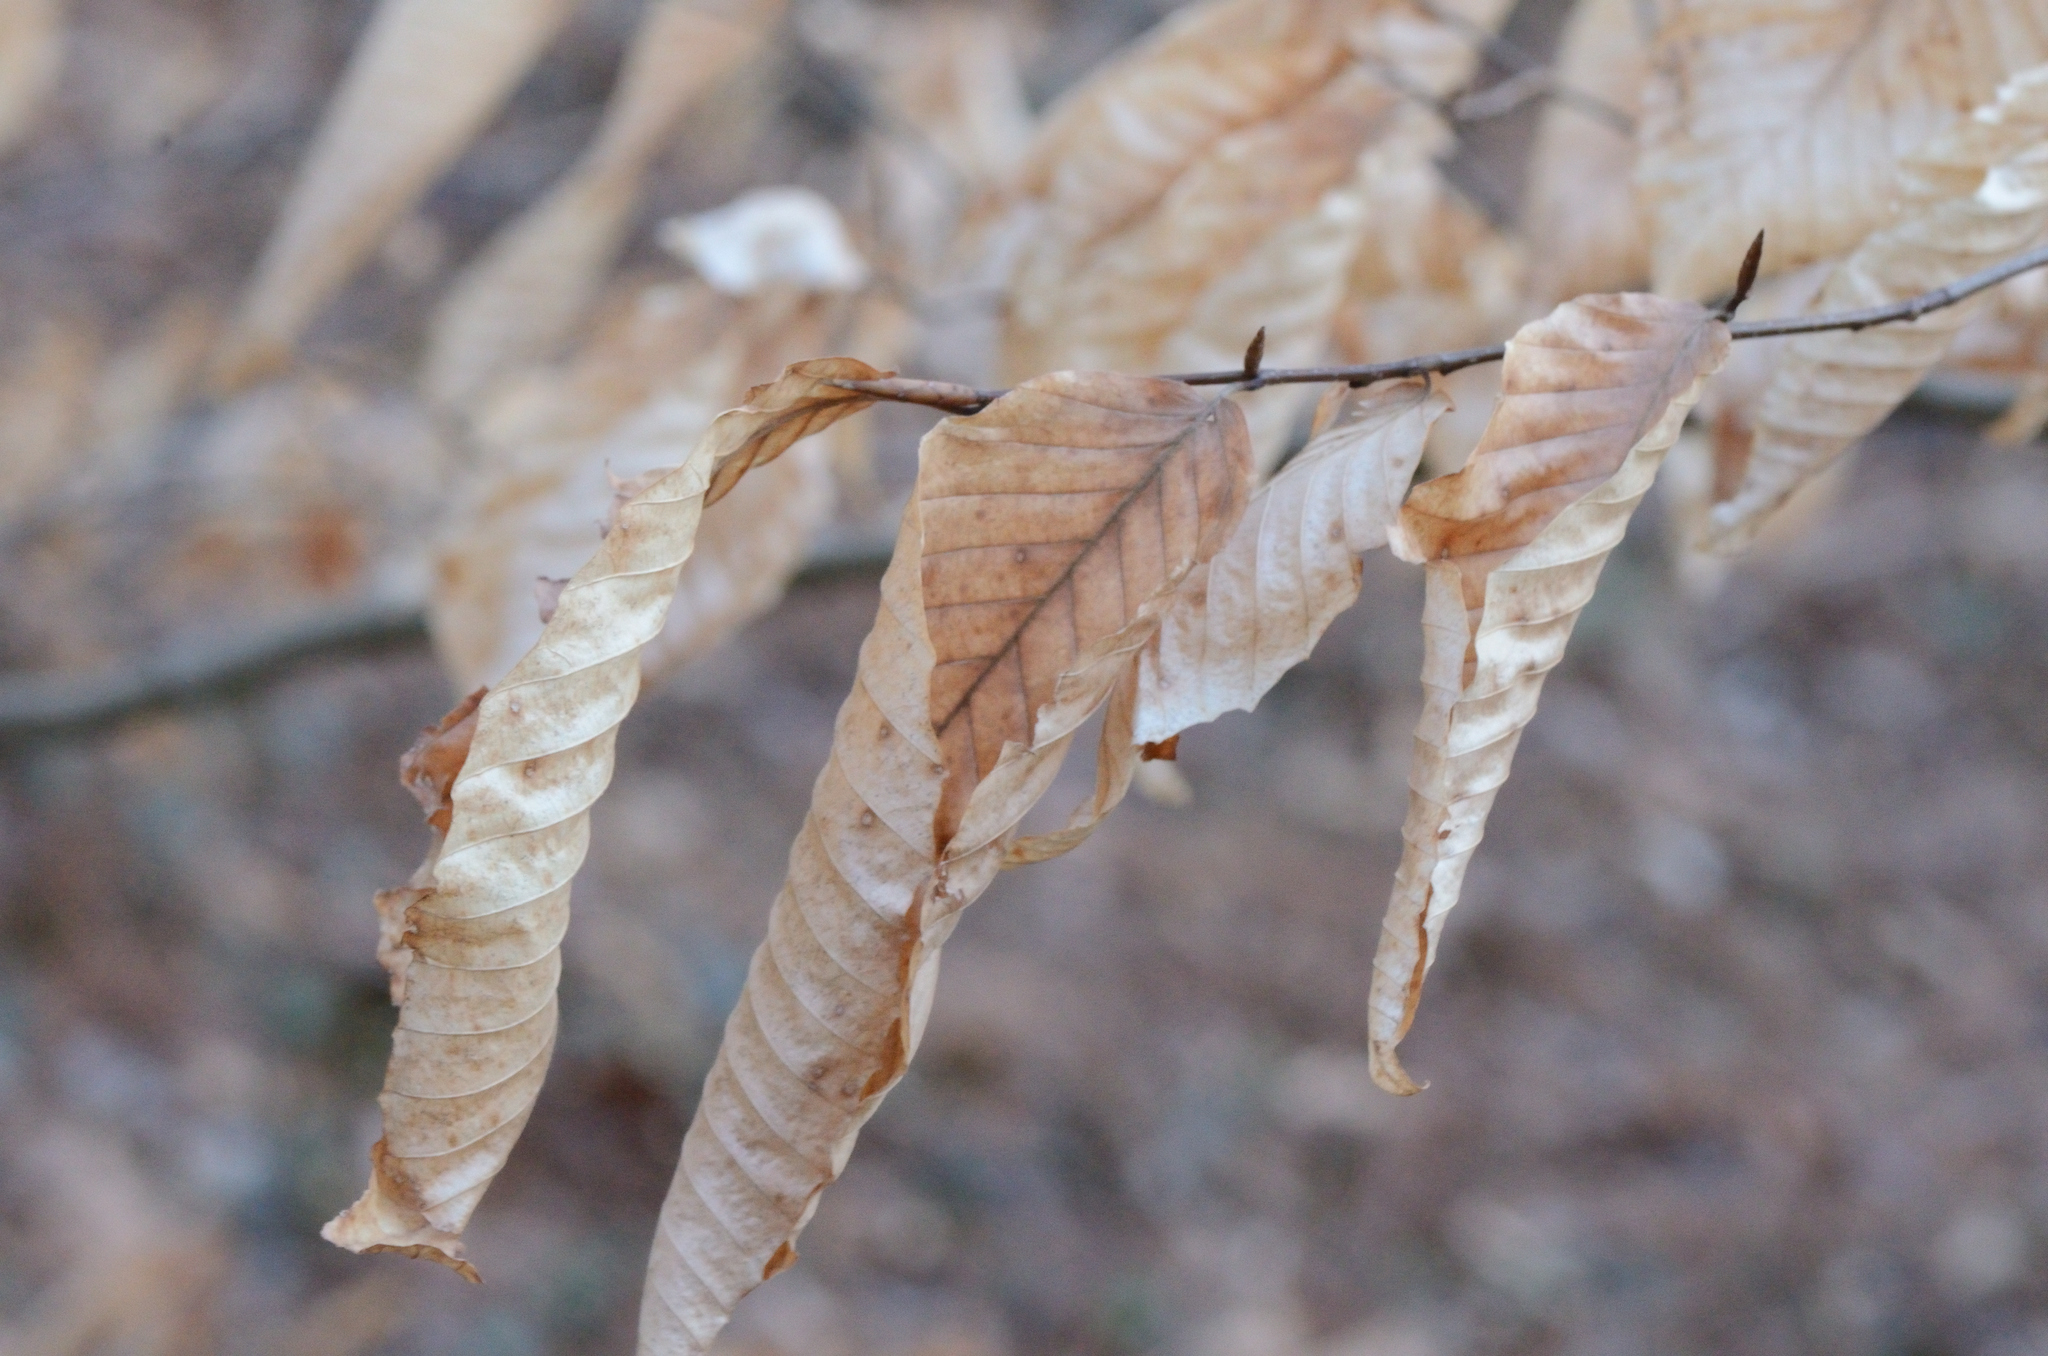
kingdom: Plantae
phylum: Tracheophyta
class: Magnoliopsida
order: Fagales
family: Fagaceae
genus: Fagus
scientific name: Fagus grandifolia
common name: American beech
